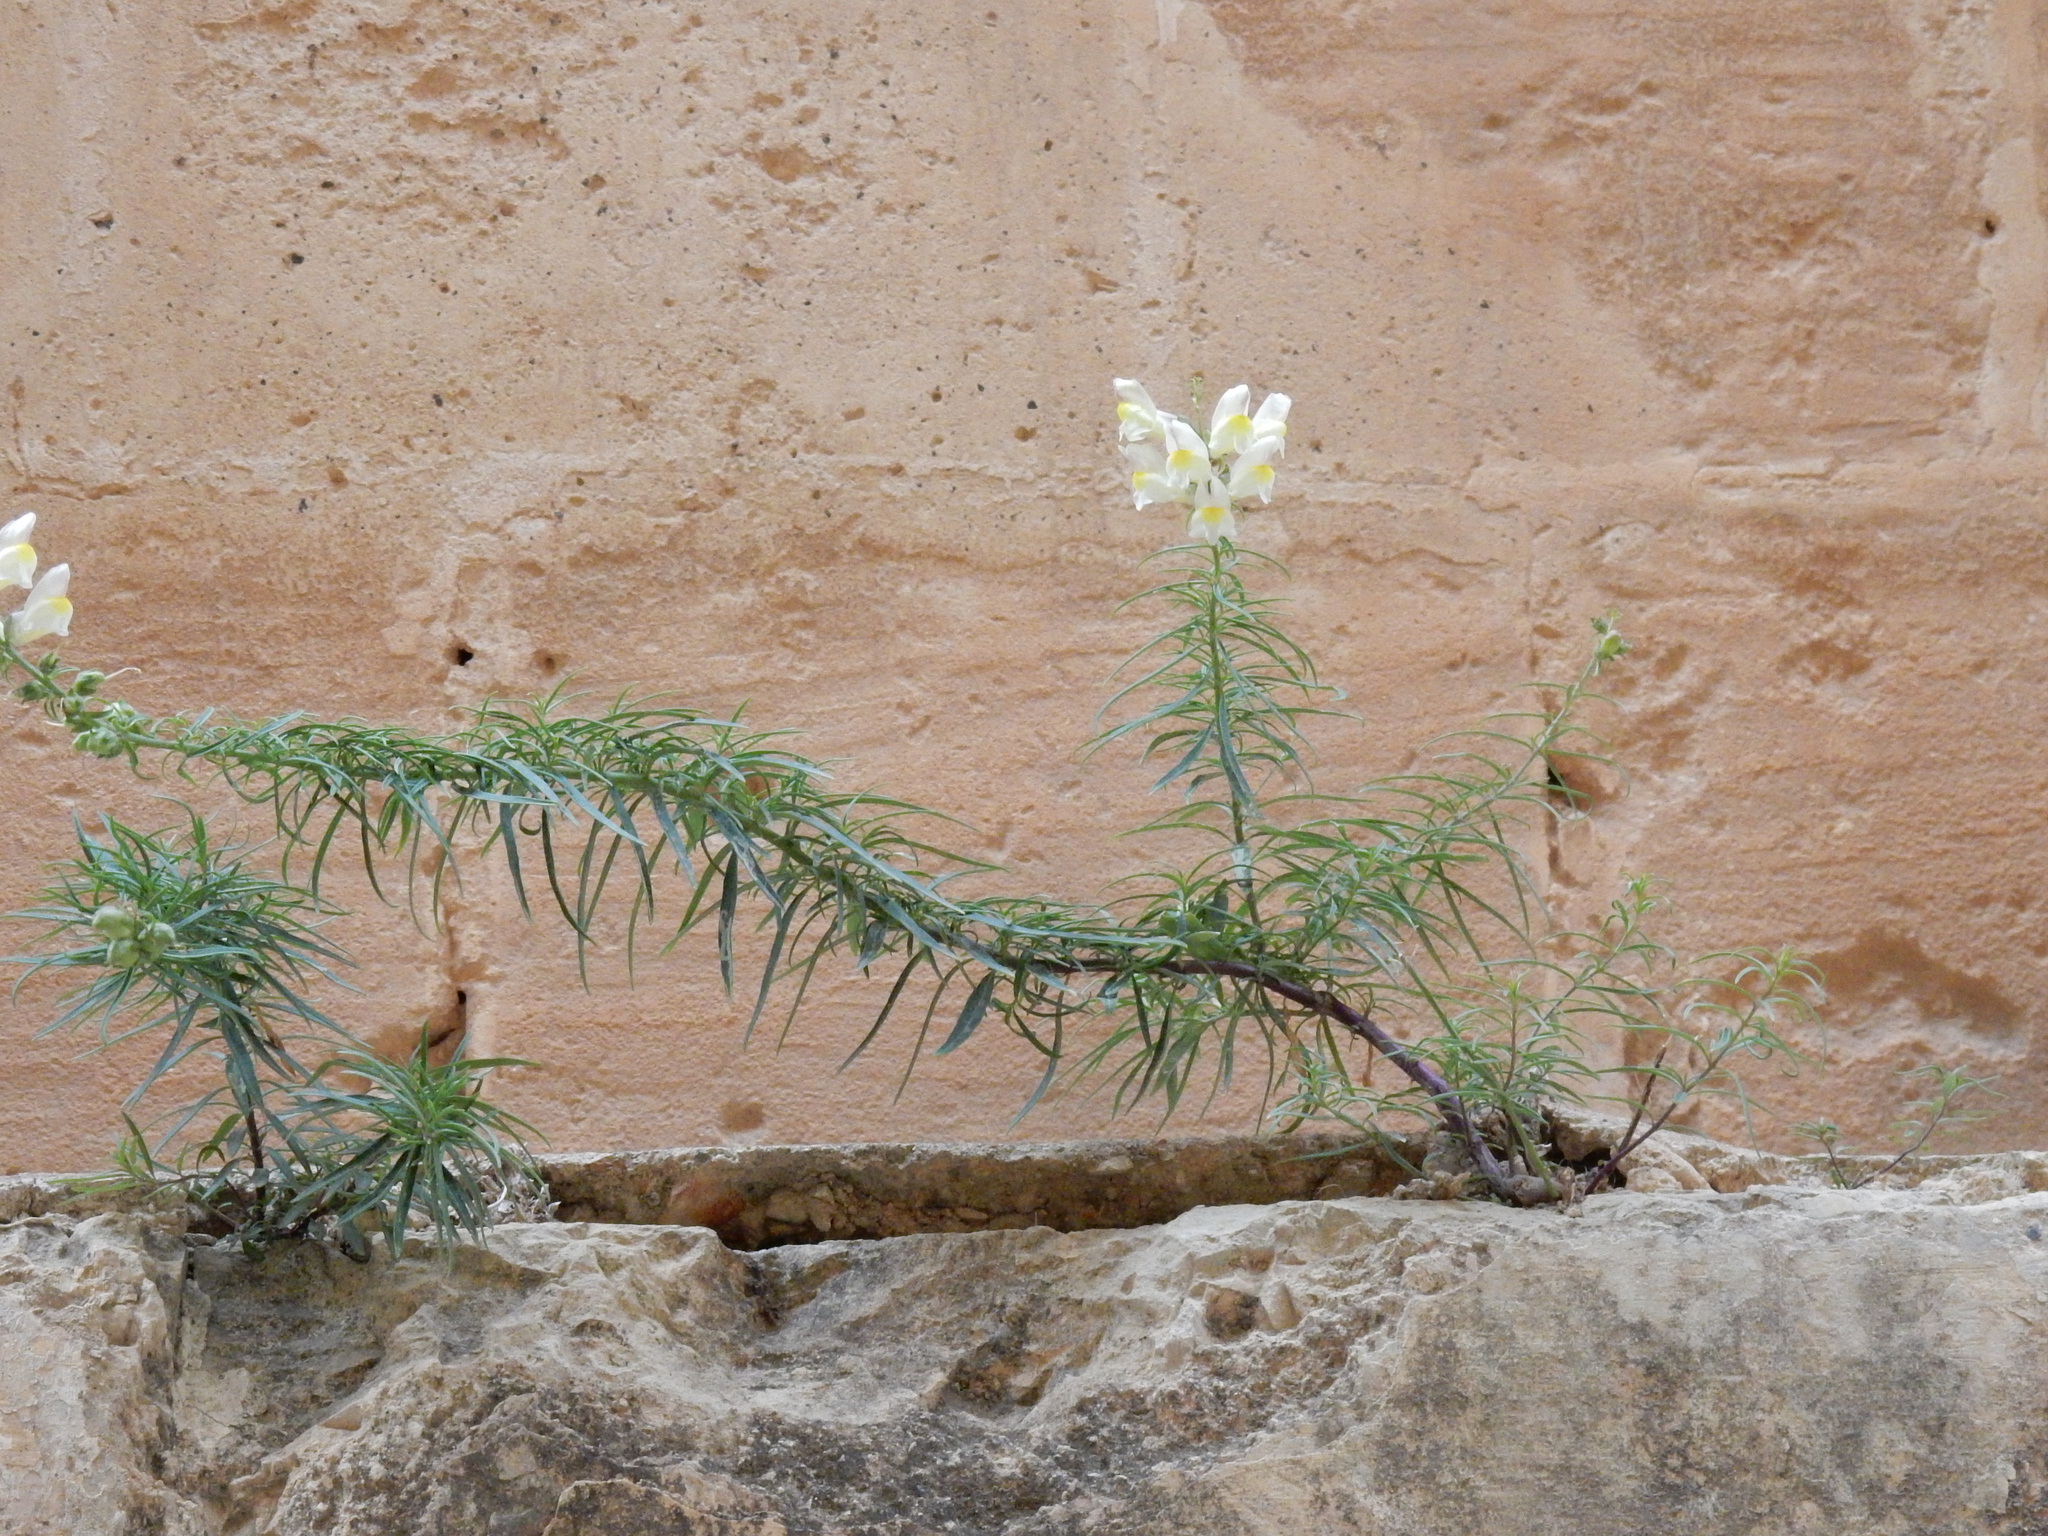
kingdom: Plantae
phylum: Tracheophyta
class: Magnoliopsida
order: Lamiales
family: Plantaginaceae
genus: Antirrhinum
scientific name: Antirrhinum siculum
